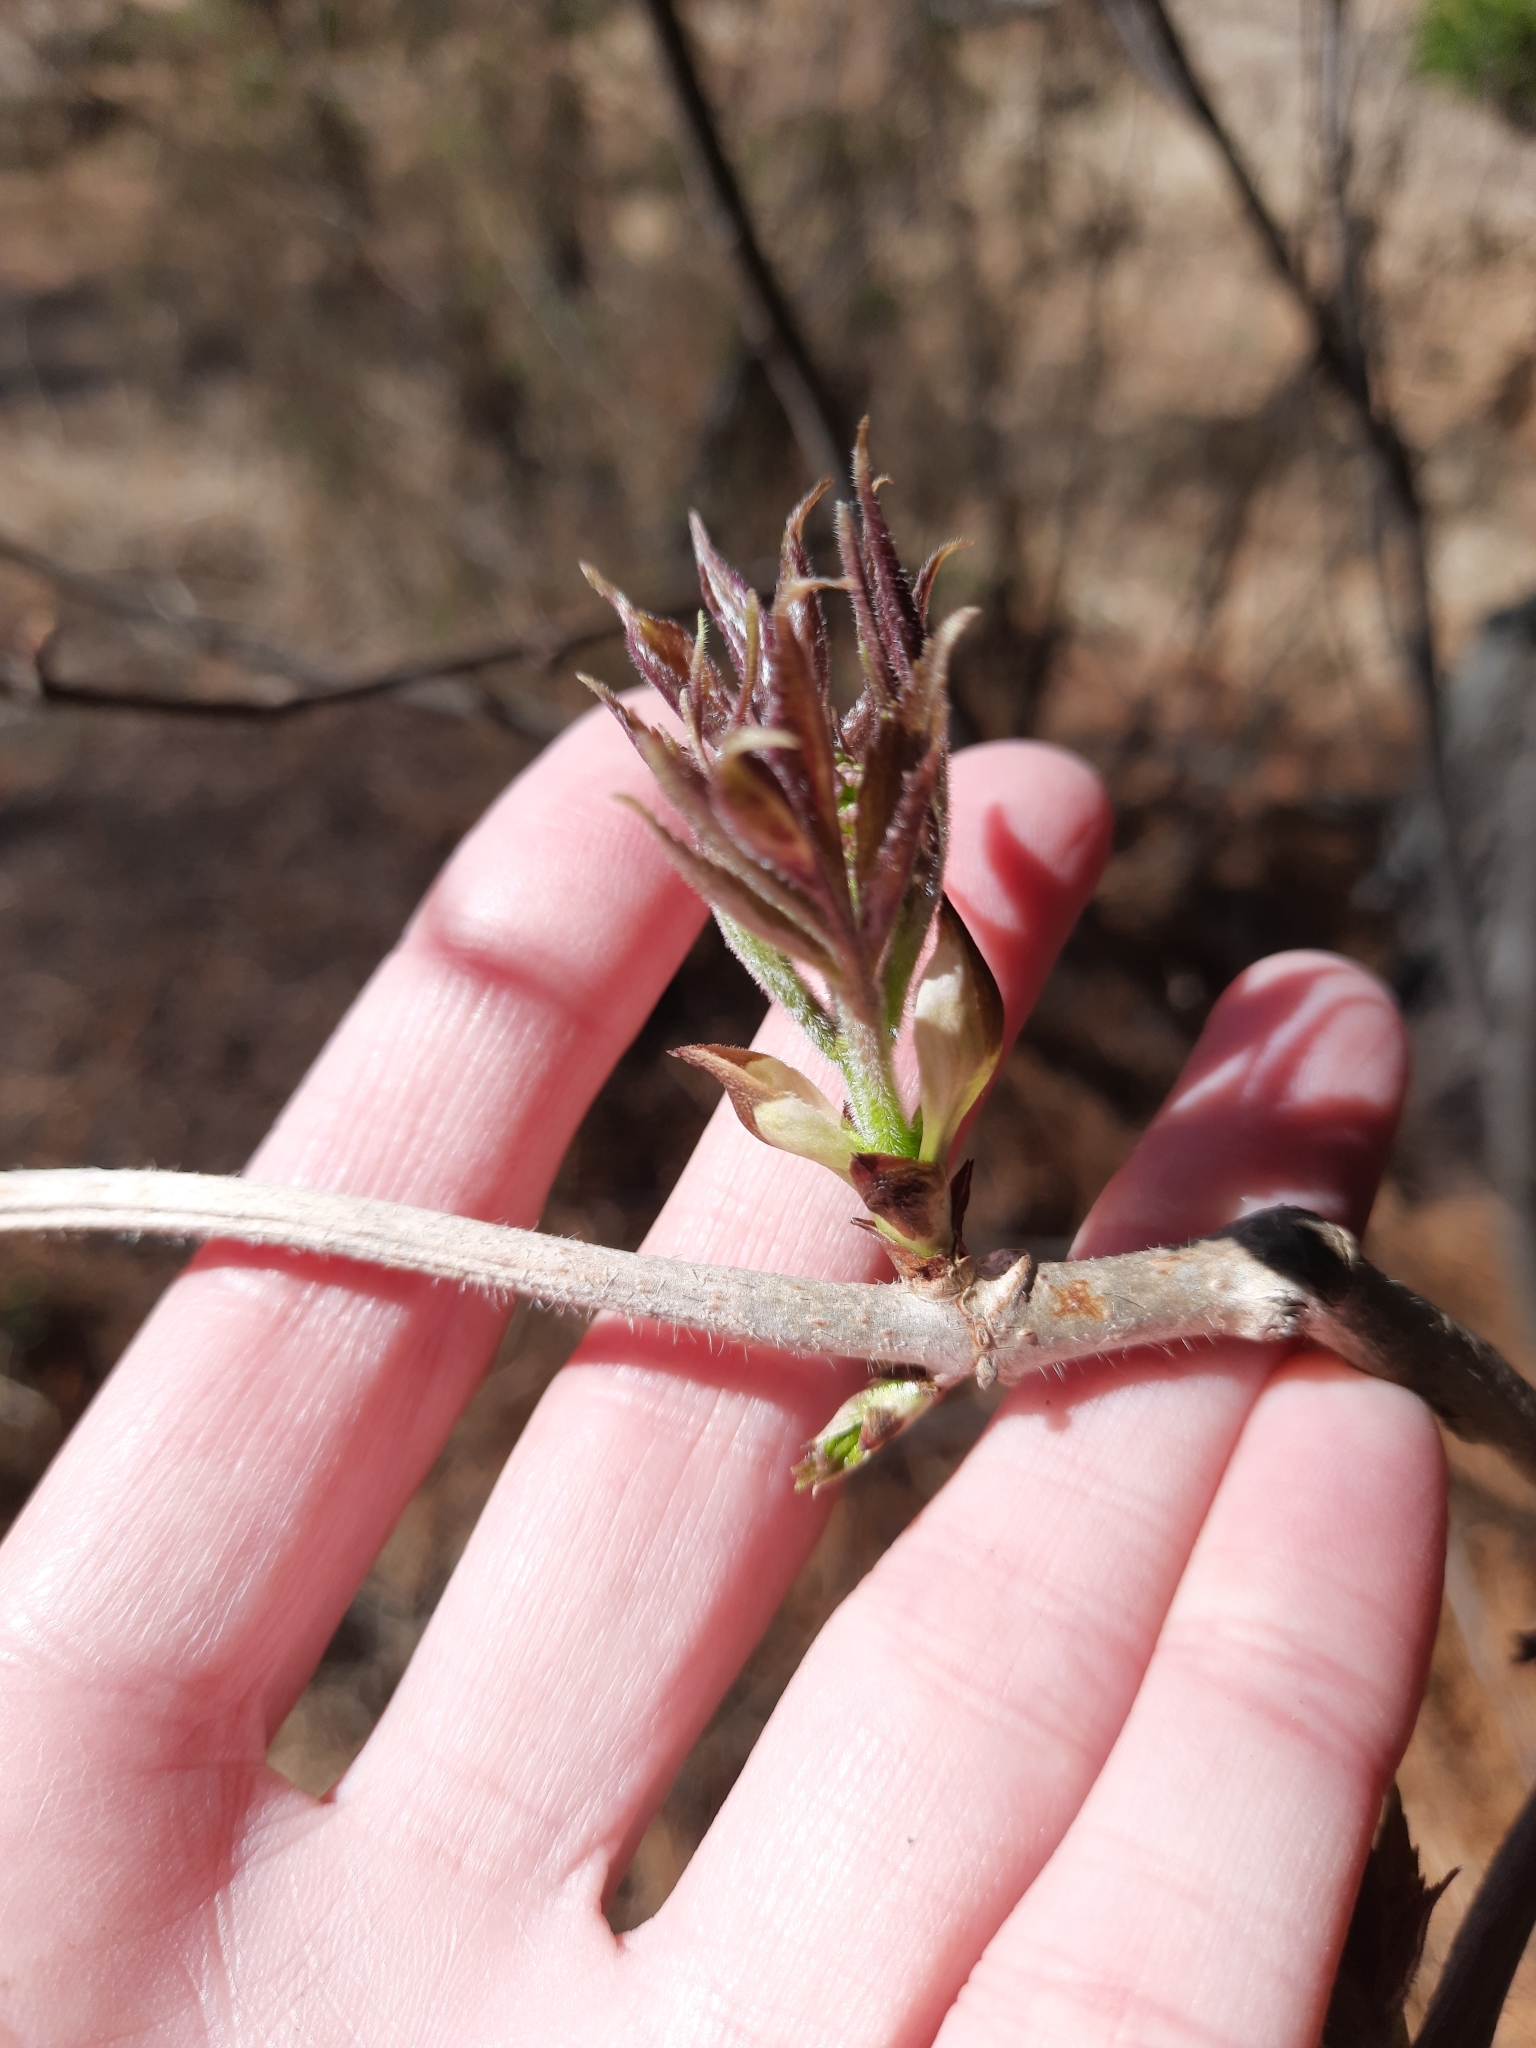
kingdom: Plantae
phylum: Tracheophyta
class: Magnoliopsida
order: Dipsacales
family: Viburnaceae
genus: Sambucus
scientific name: Sambucus sibirica
